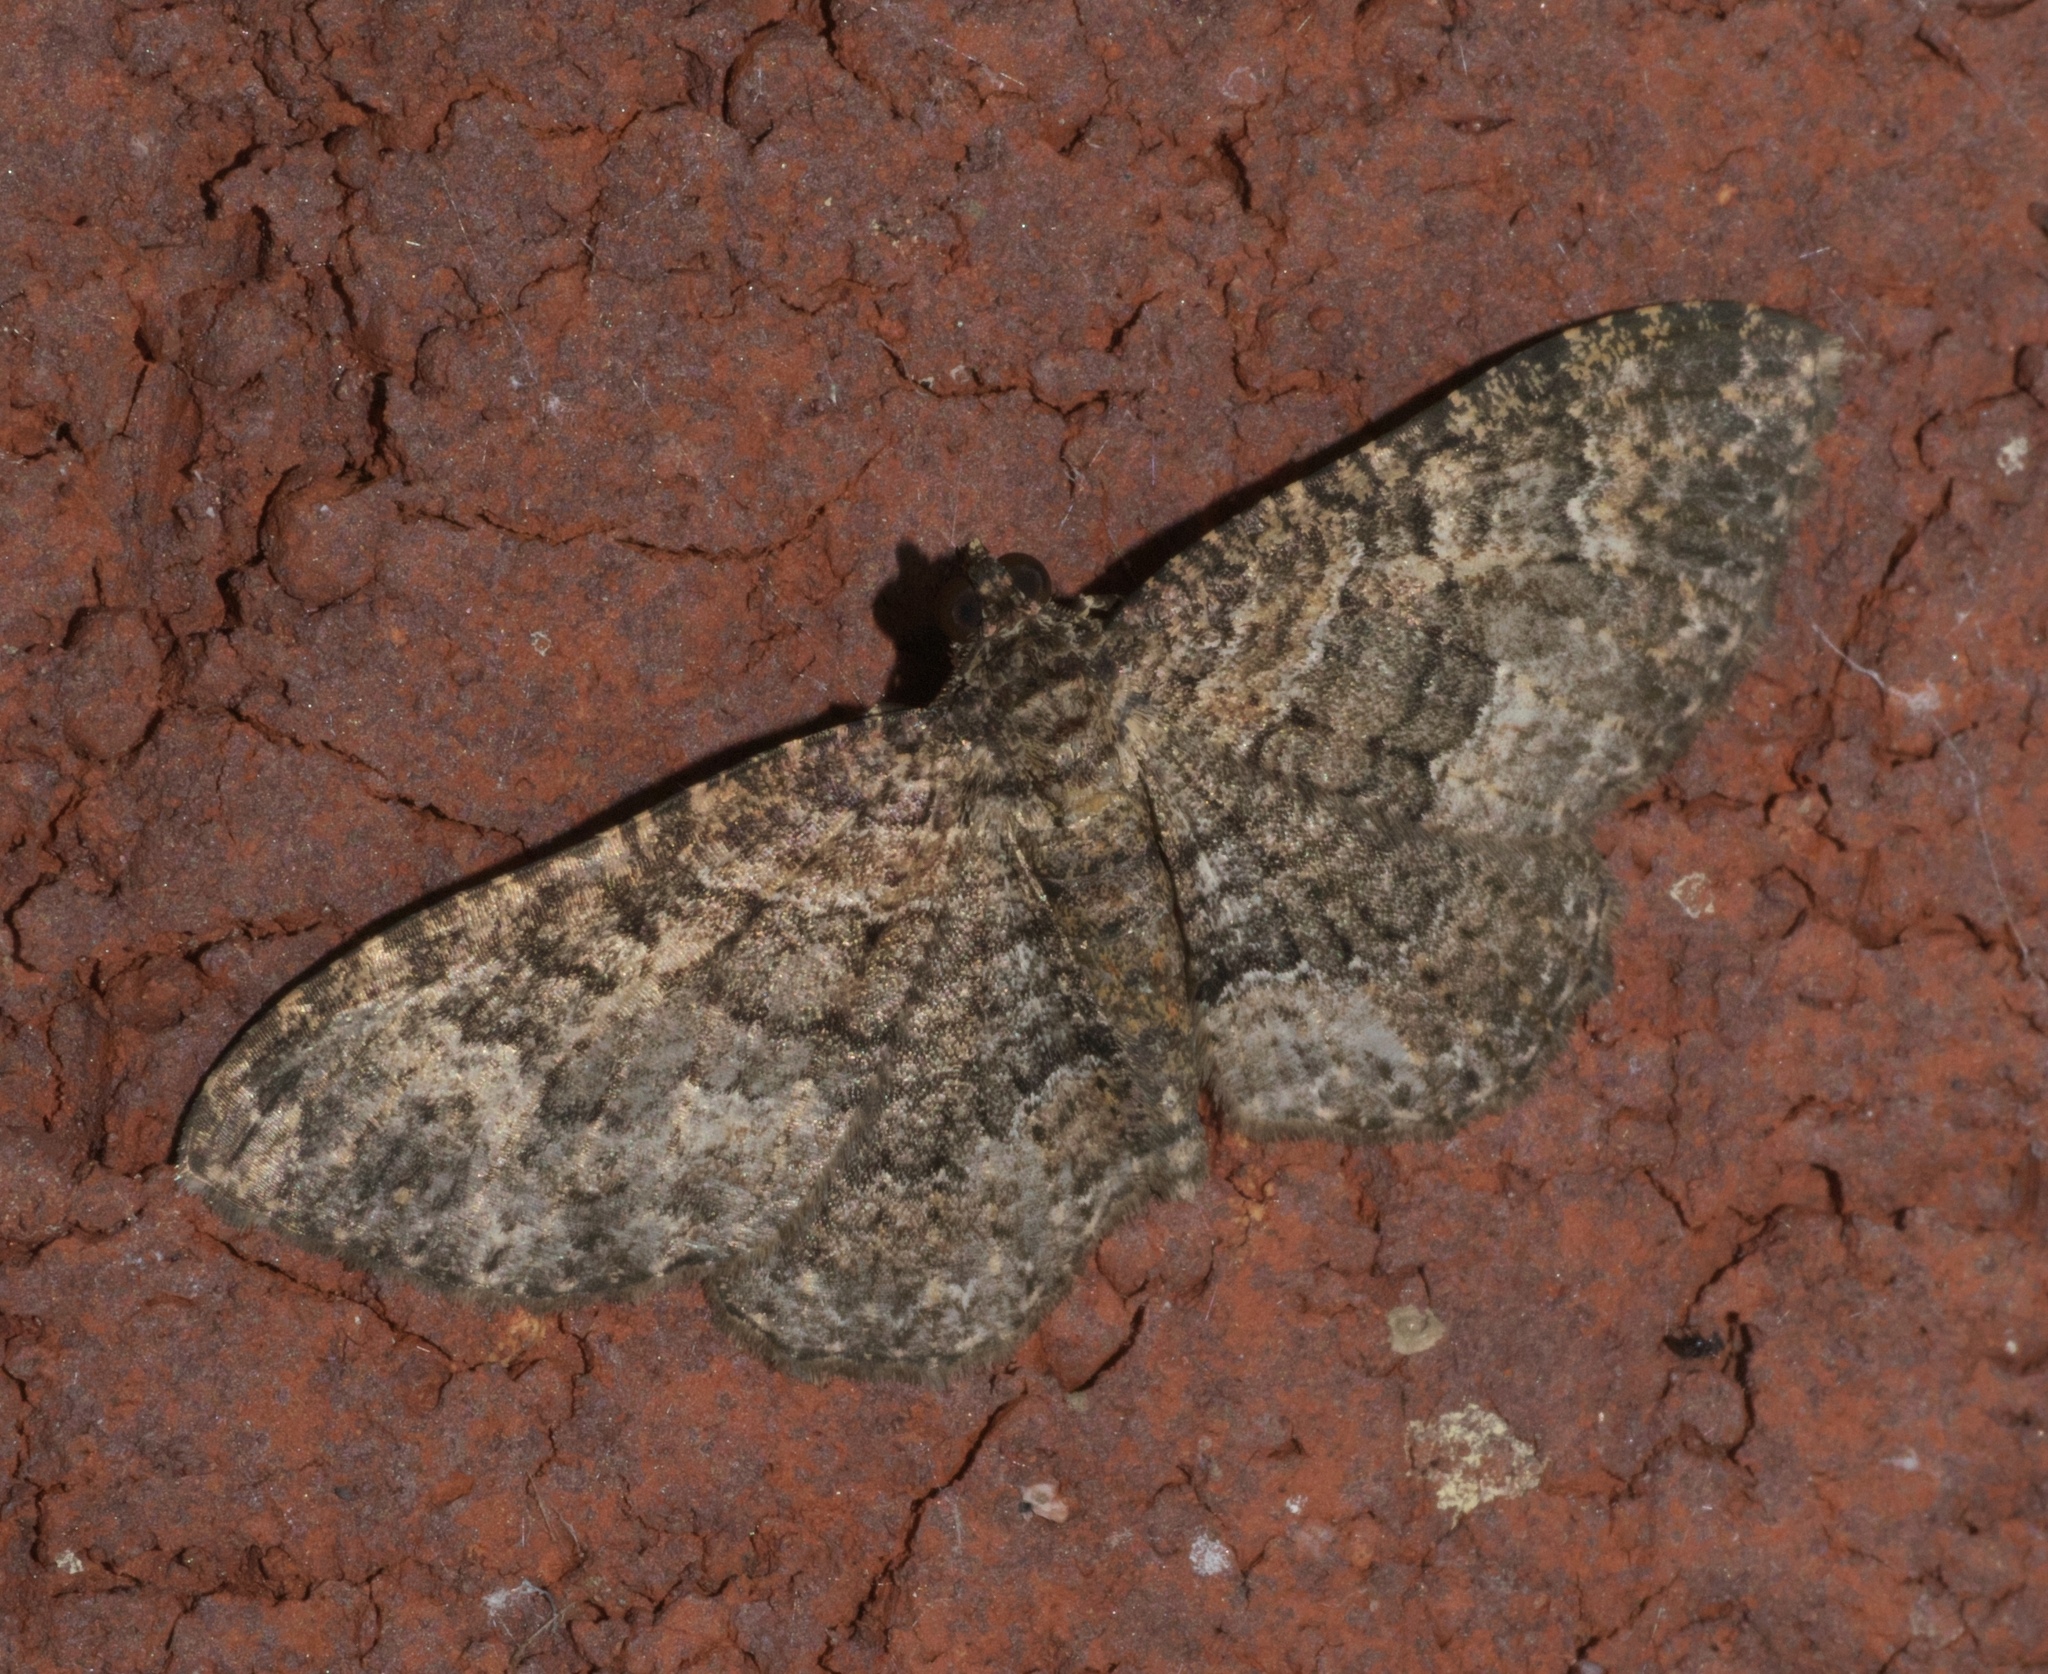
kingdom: Animalia
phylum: Arthropoda
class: Insecta
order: Lepidoptera
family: Geometridae
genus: Disclisioprocta
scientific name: Disclisioprocta stellata
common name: Somber carpet
